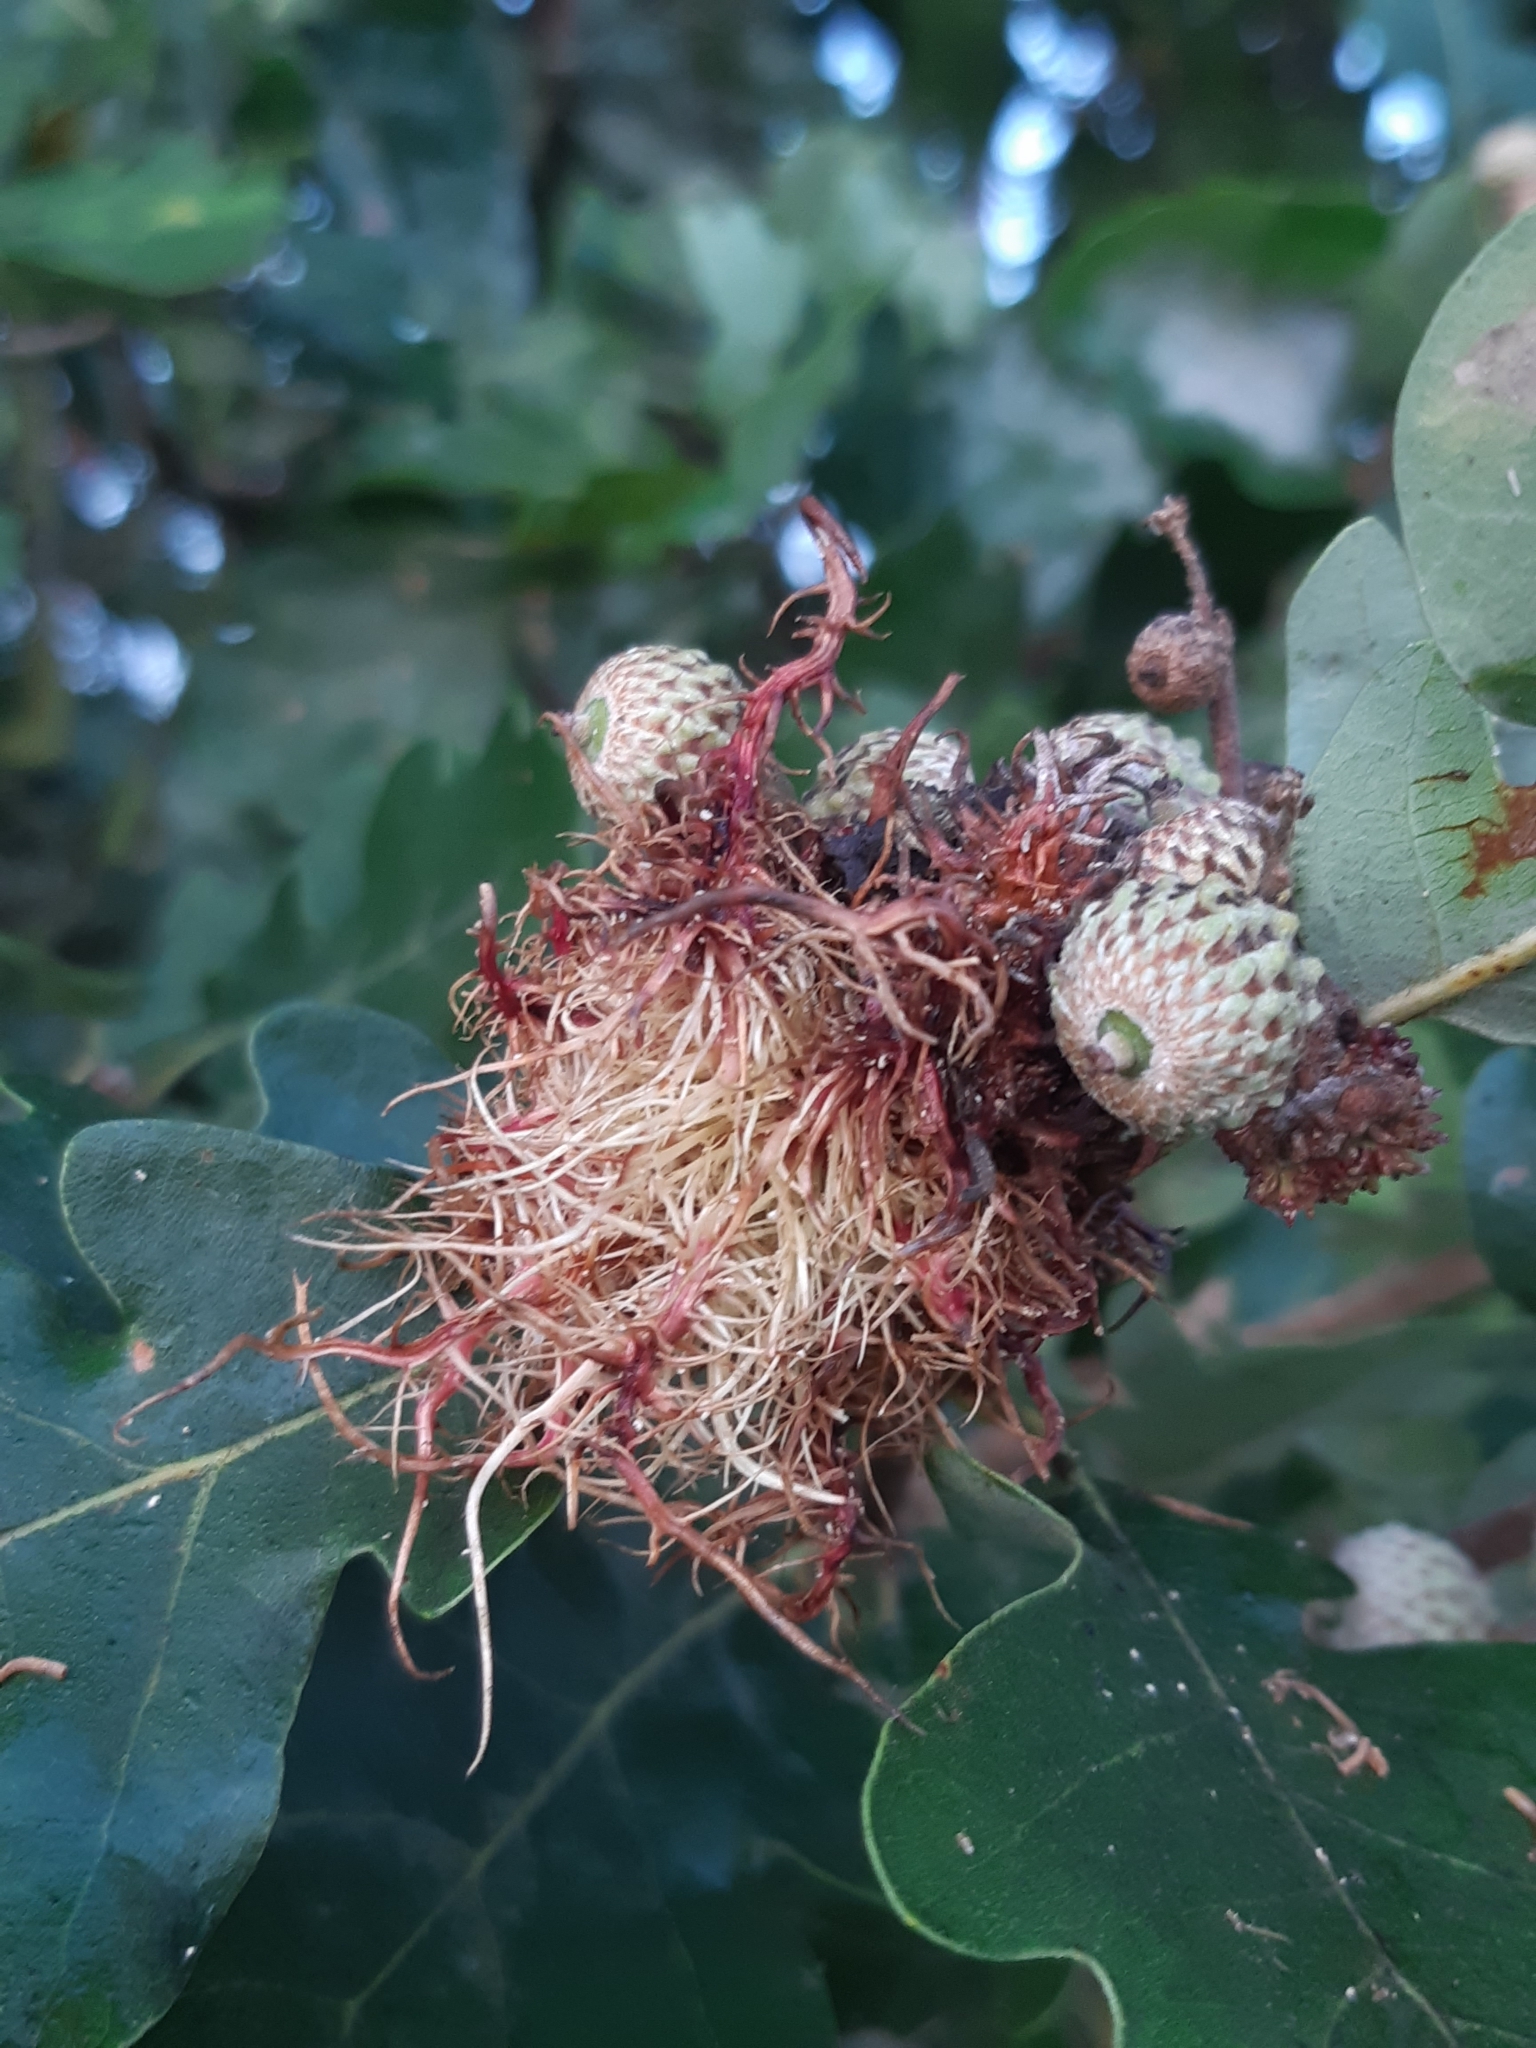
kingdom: Animalia
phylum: Arthropoda
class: Insecta
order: Hymenoptera
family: Cynipidae
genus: Andricus
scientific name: Andricus caputmedusae
